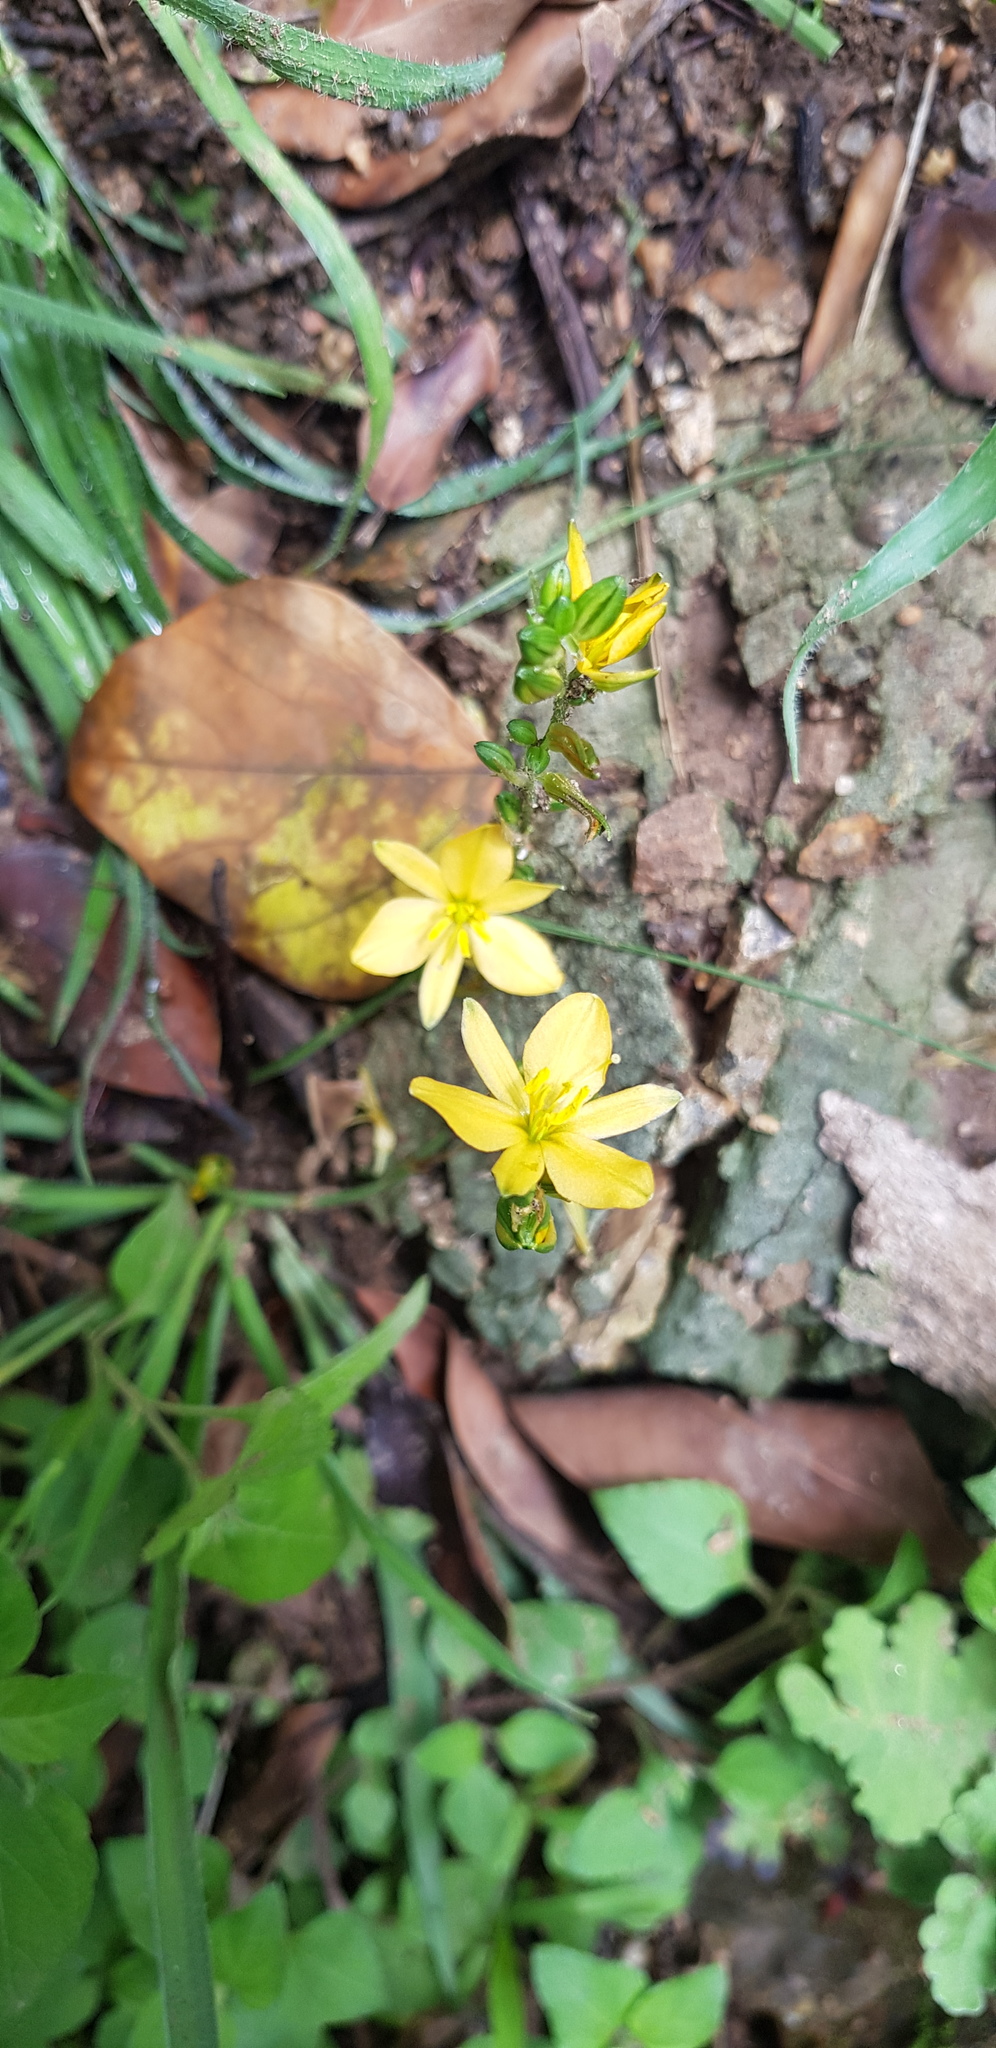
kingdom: Plantae
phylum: Tracheophyta
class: Liliopsida
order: Asparagales
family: Asparagaceae
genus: Echeandia
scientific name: Echeandia vestita
